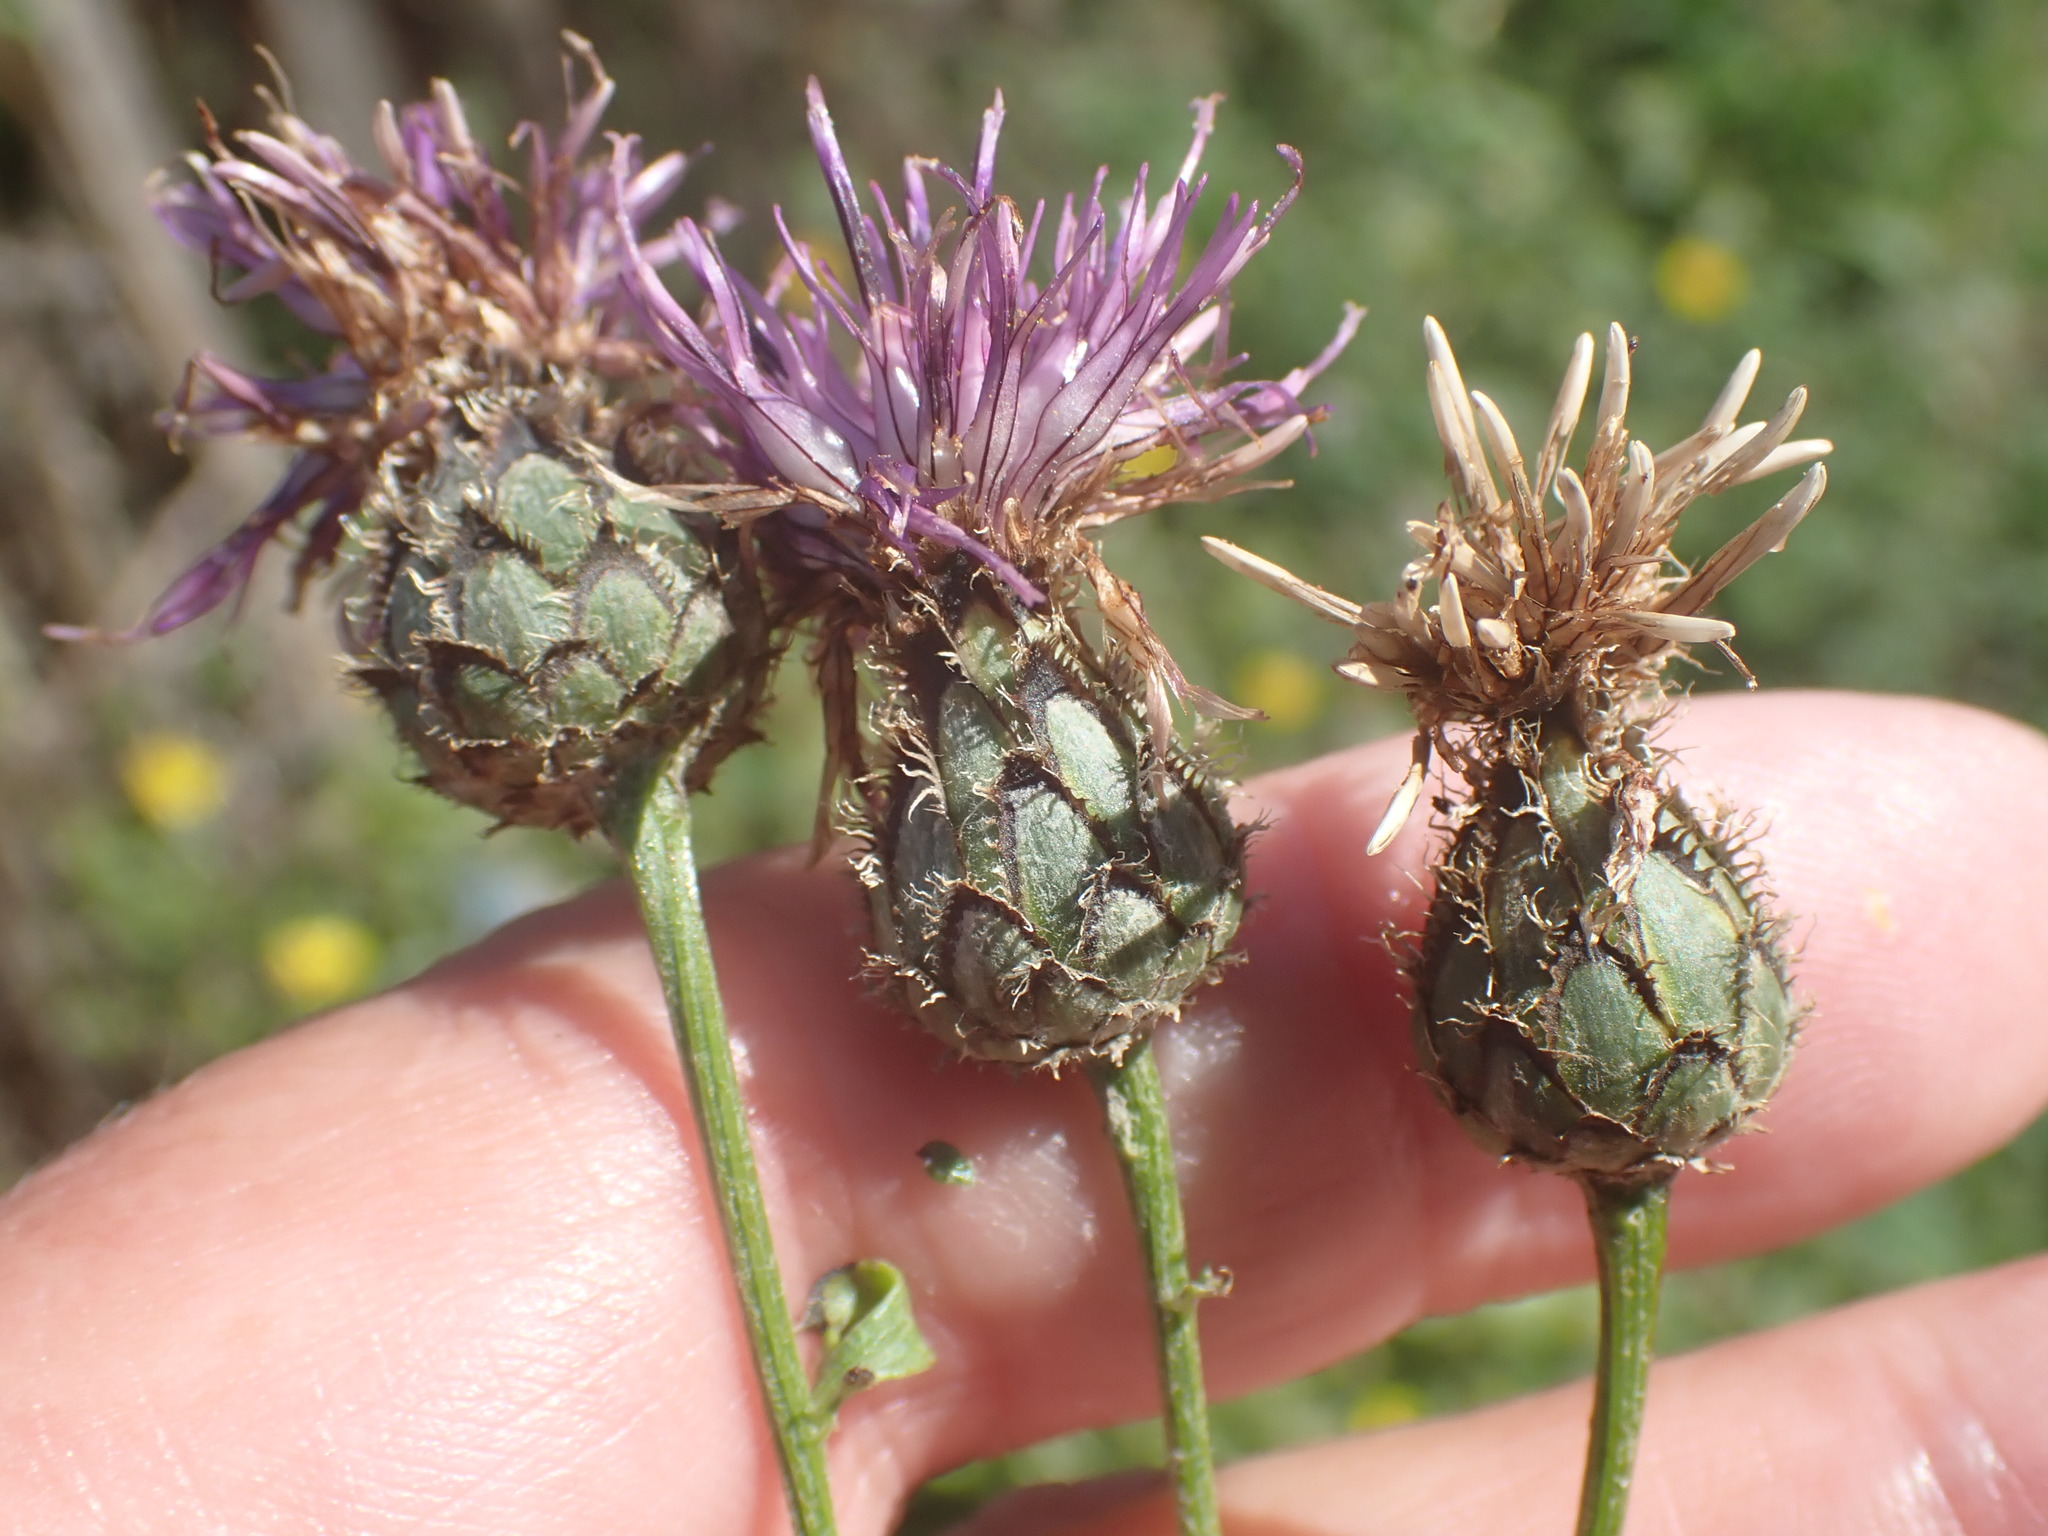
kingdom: Plantae
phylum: Tracheophyta
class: Magnoliopsida
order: Asterales
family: Asteraceae
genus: Centaurea
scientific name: Centaurea scabiosa
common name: Greater knapweed
